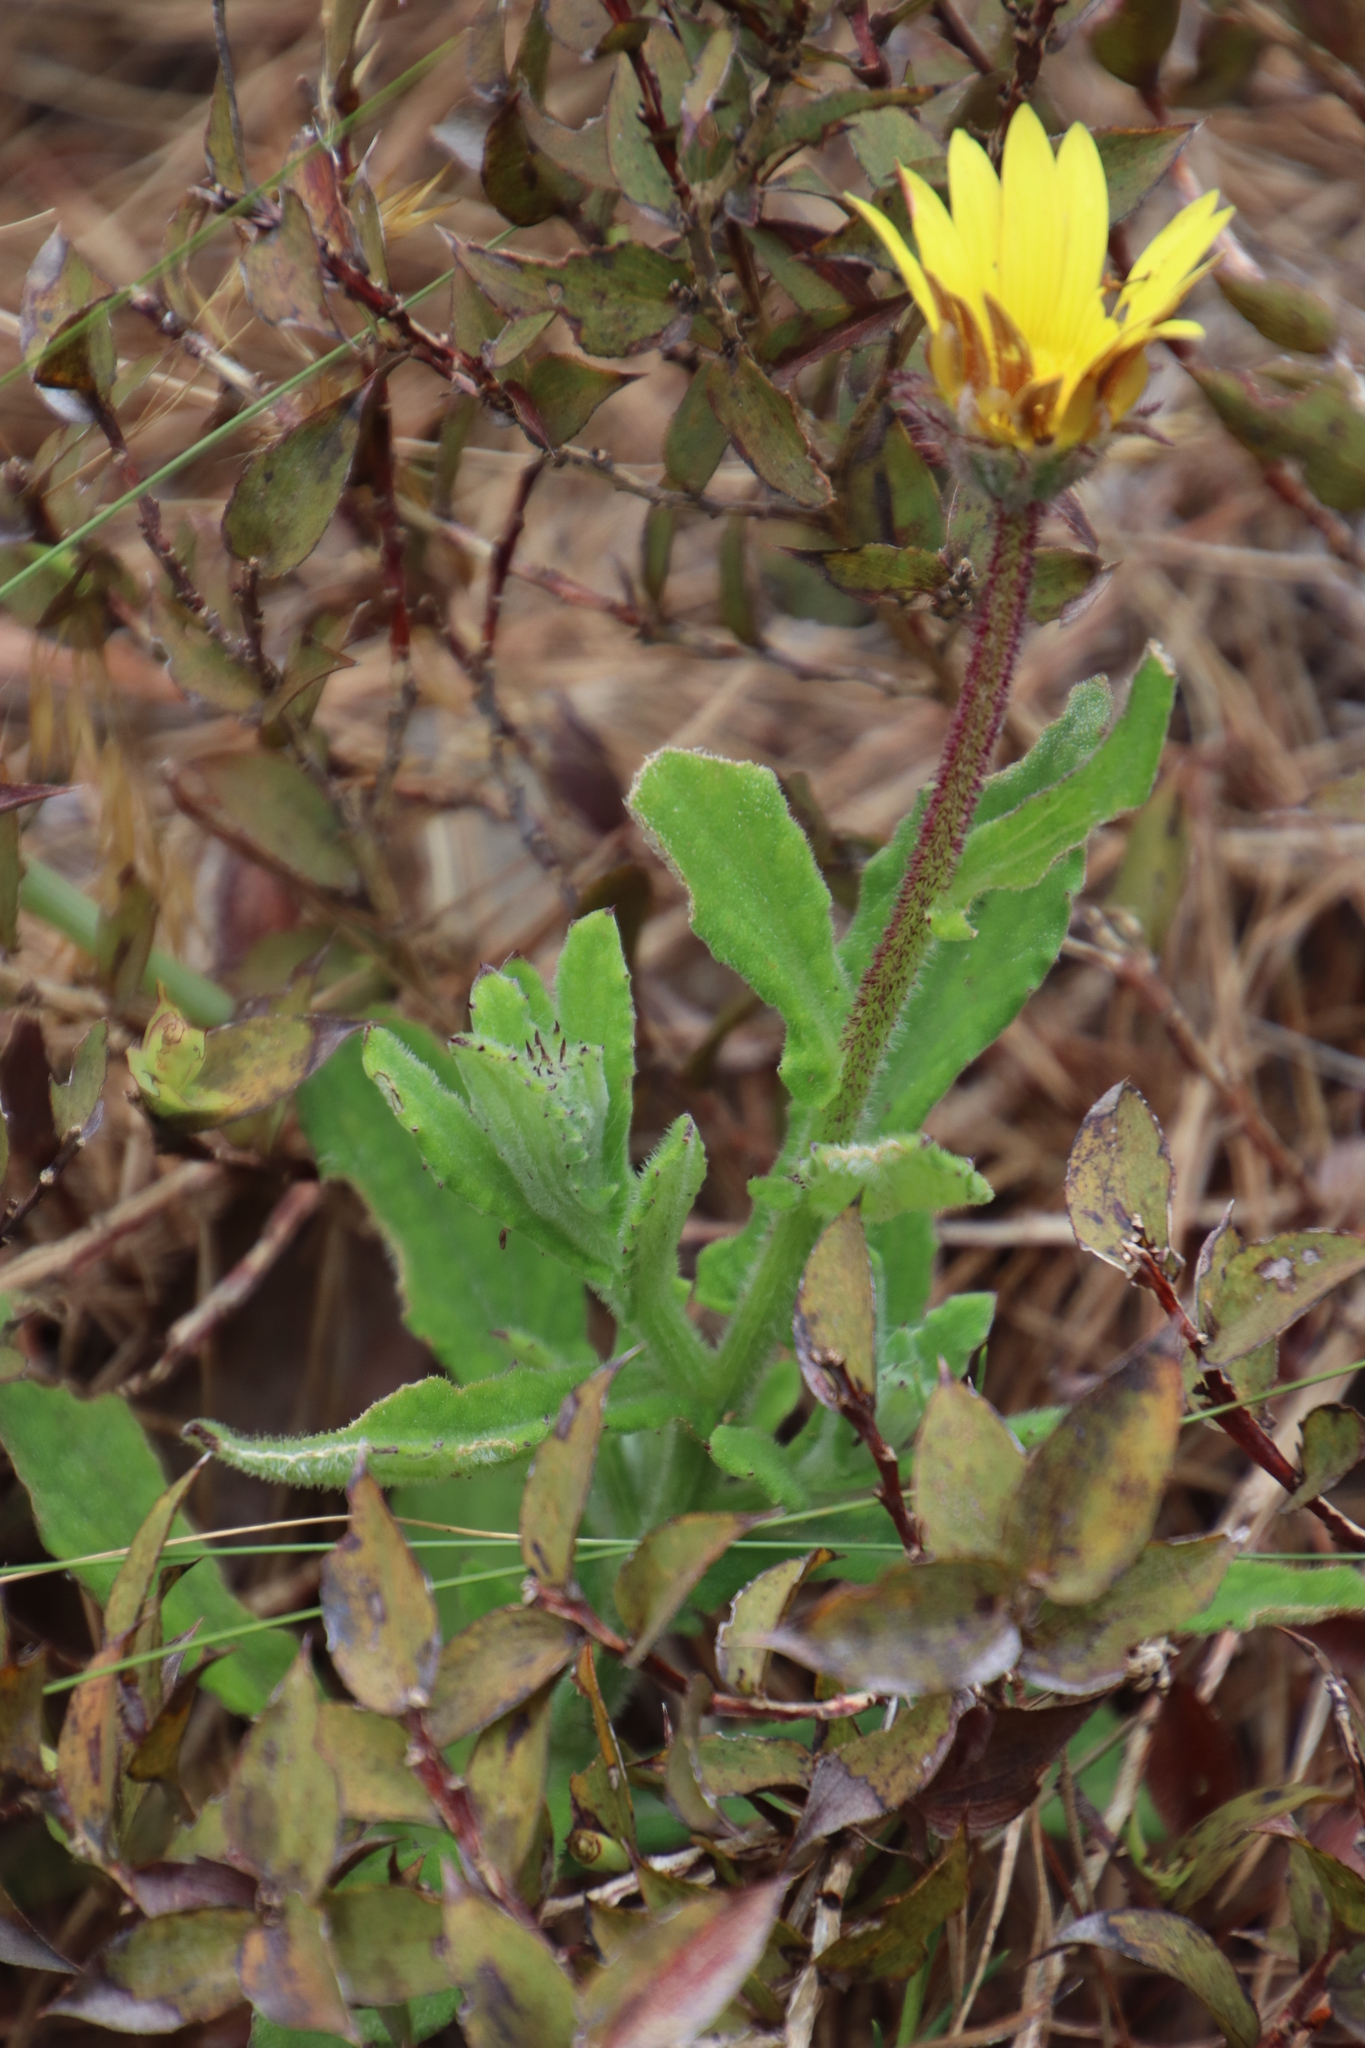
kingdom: Plantae
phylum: Tracheophyta
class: Magnoliopsida
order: Asterales
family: Asteraceae
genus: Arctotis
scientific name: Arctotis scabra
